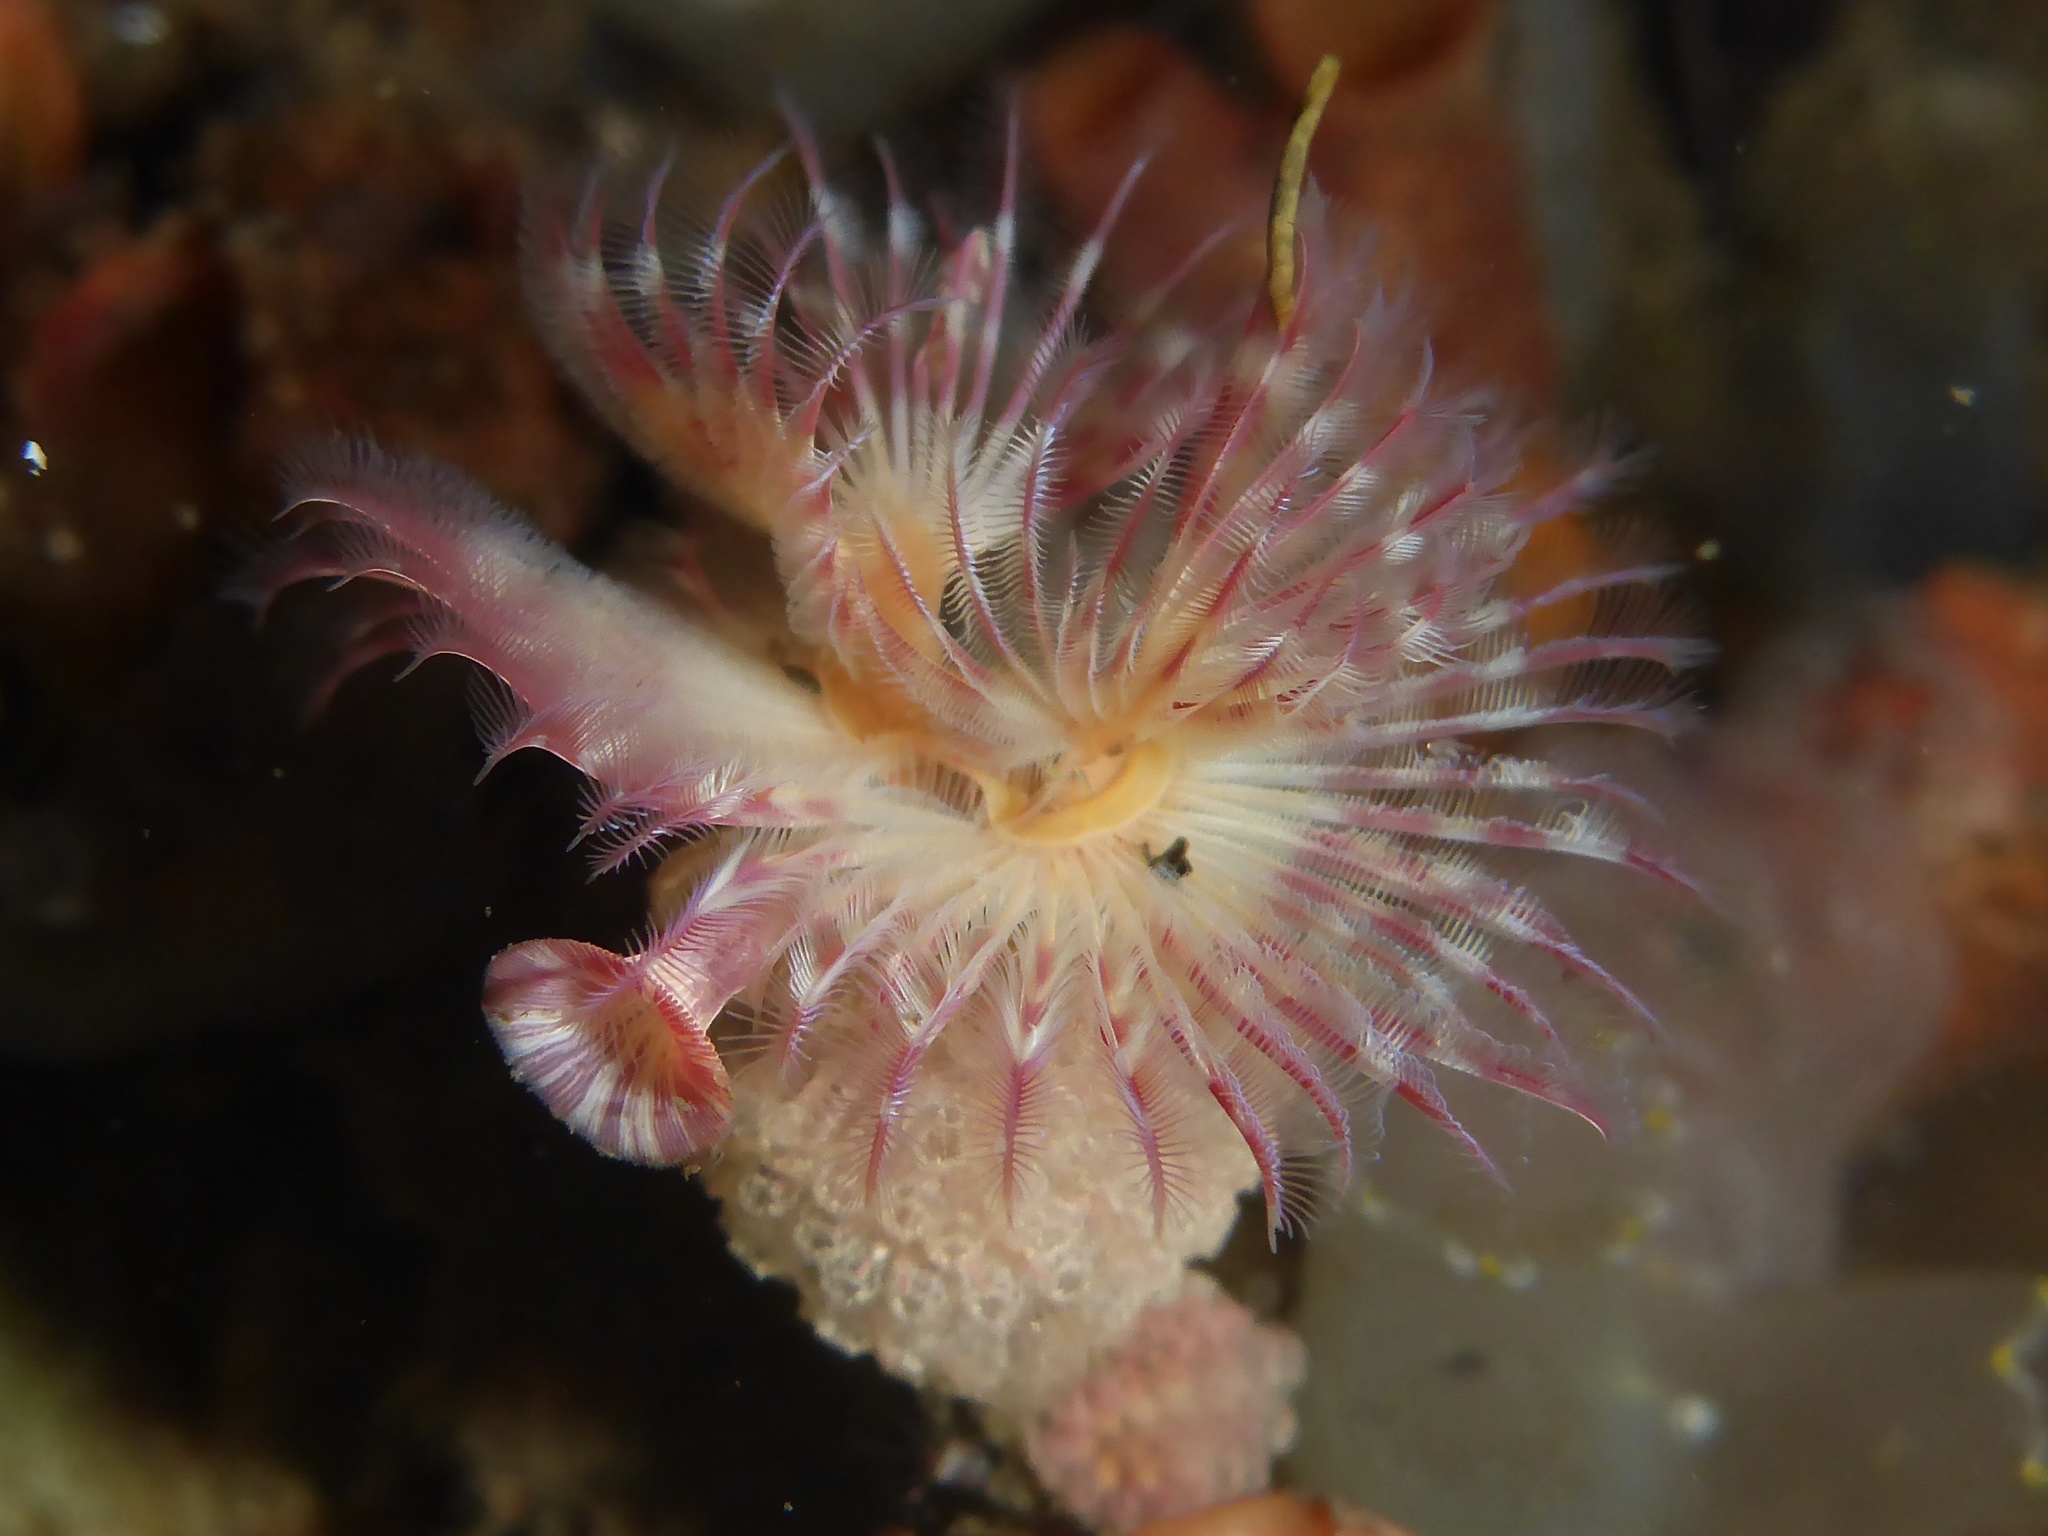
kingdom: Animalia
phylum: Annelida
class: Polychaeta
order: Sabellida
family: Serpulidae
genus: Serpula
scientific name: Serpula columbiana
